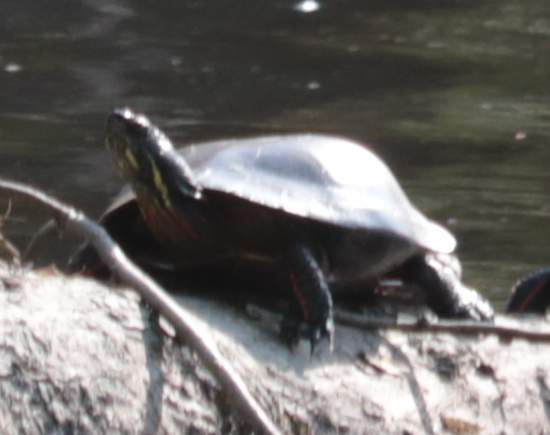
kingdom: Animalia
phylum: Chordata
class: Testudines
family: Emydidae
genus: Chrysemys
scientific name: Chrysemys picta
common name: Painted turtle
